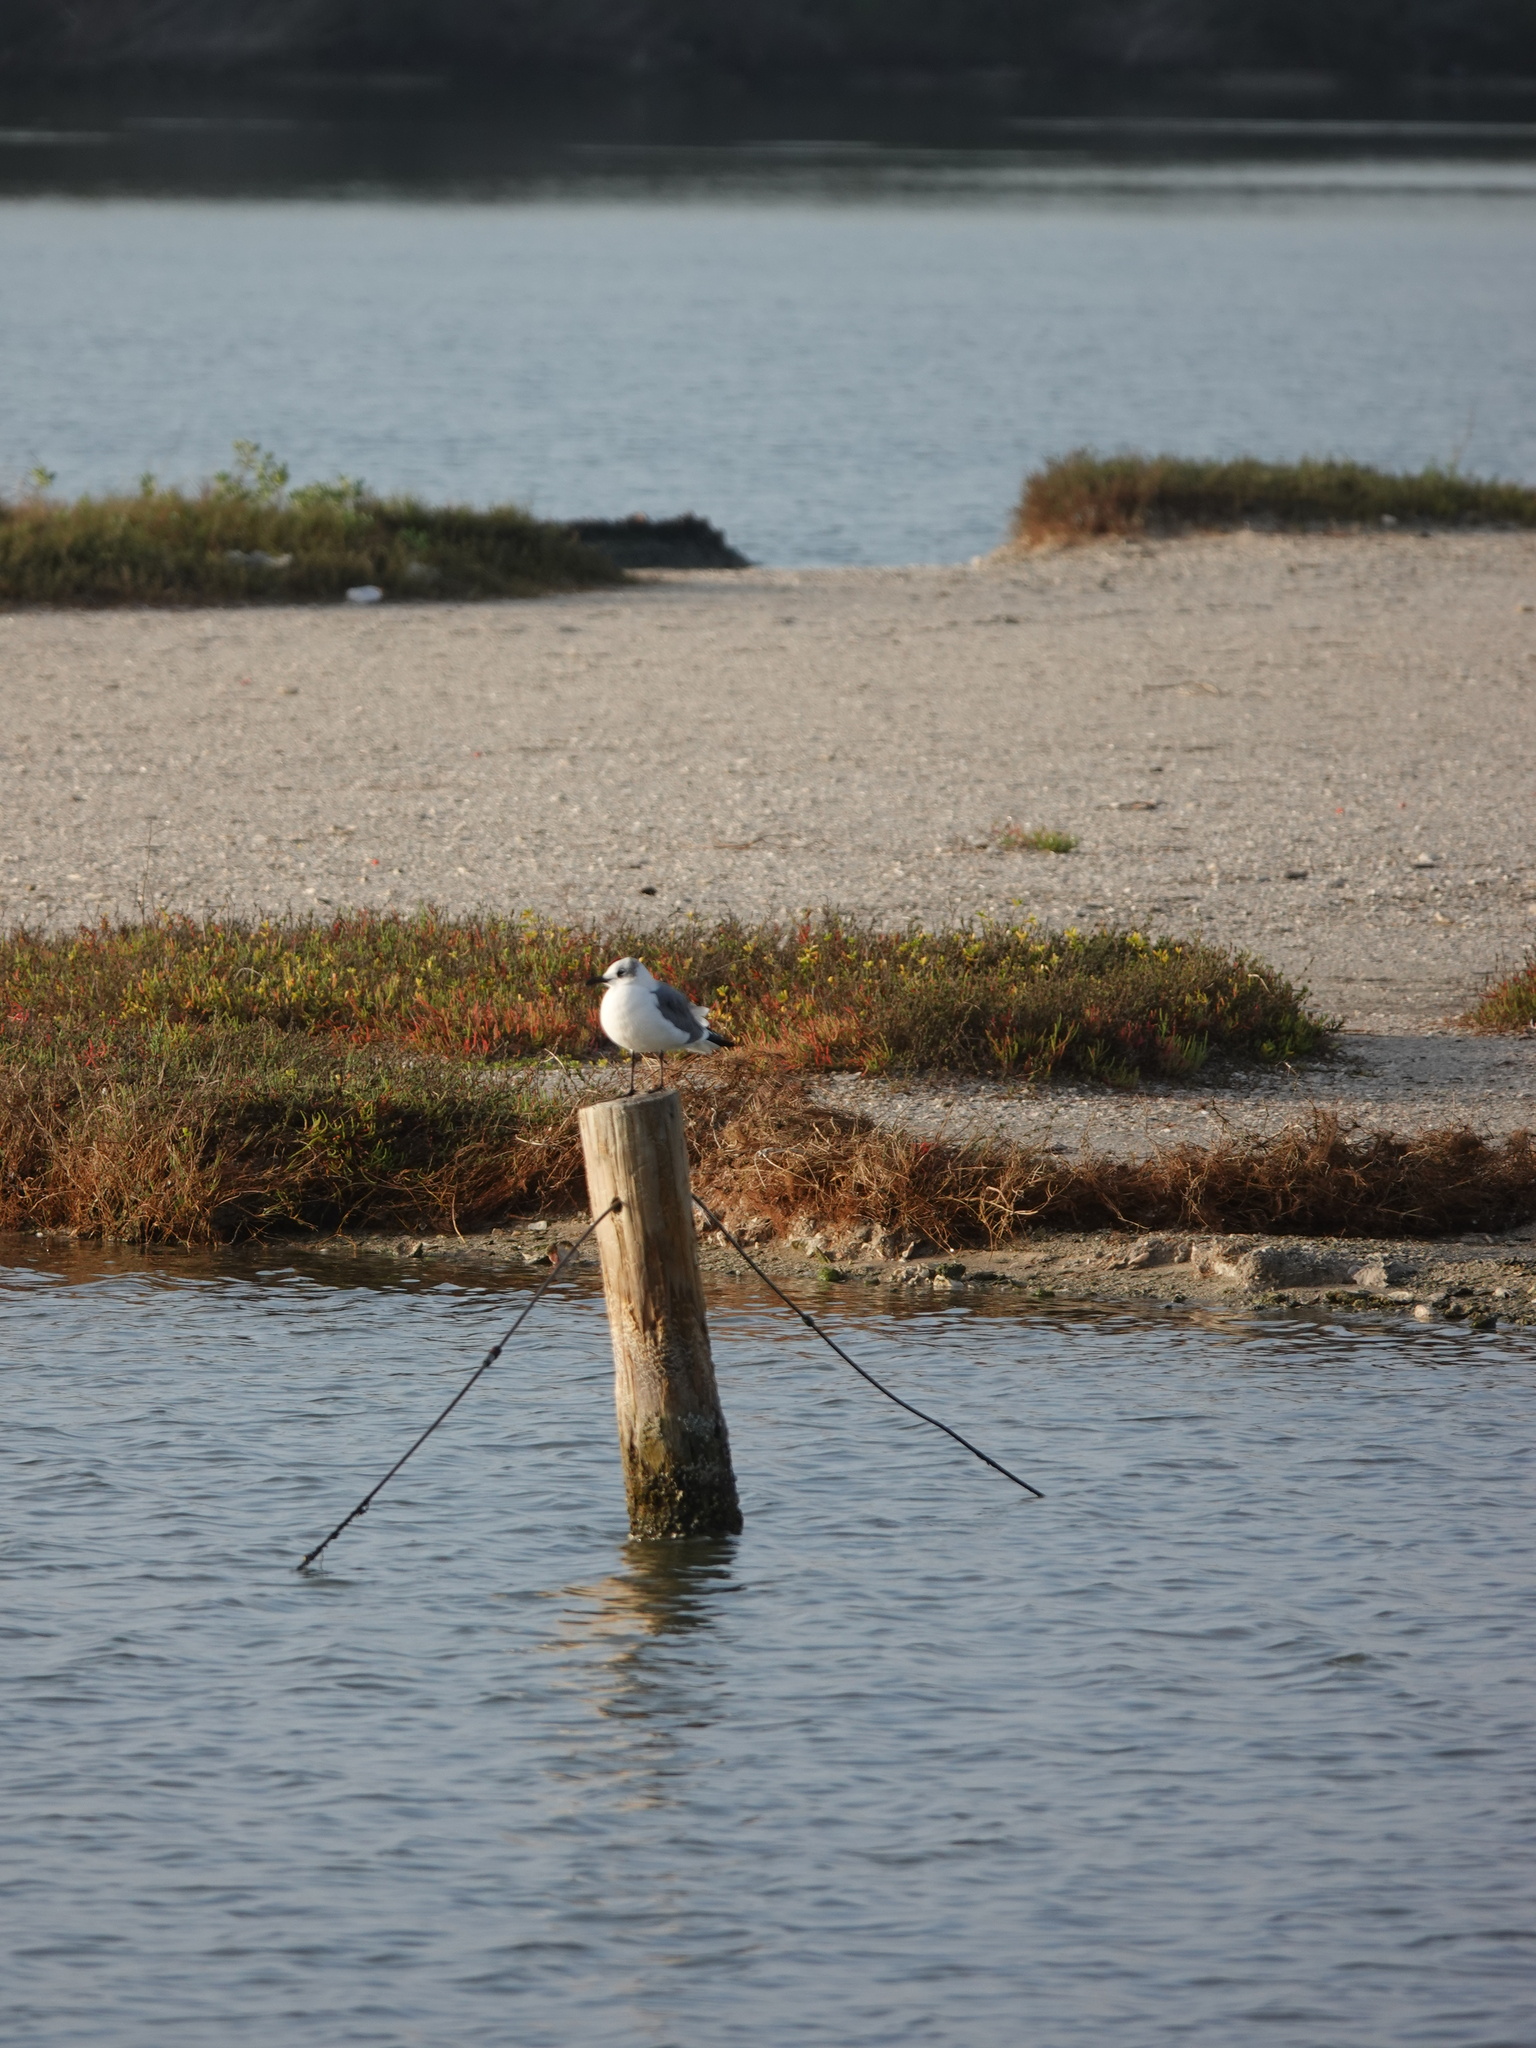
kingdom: Animalia
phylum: Chordata
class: Aves
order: Charadriiformes
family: Laridae
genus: Leucophaeus
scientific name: Leucophaeus atricilla
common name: Laughing gull
